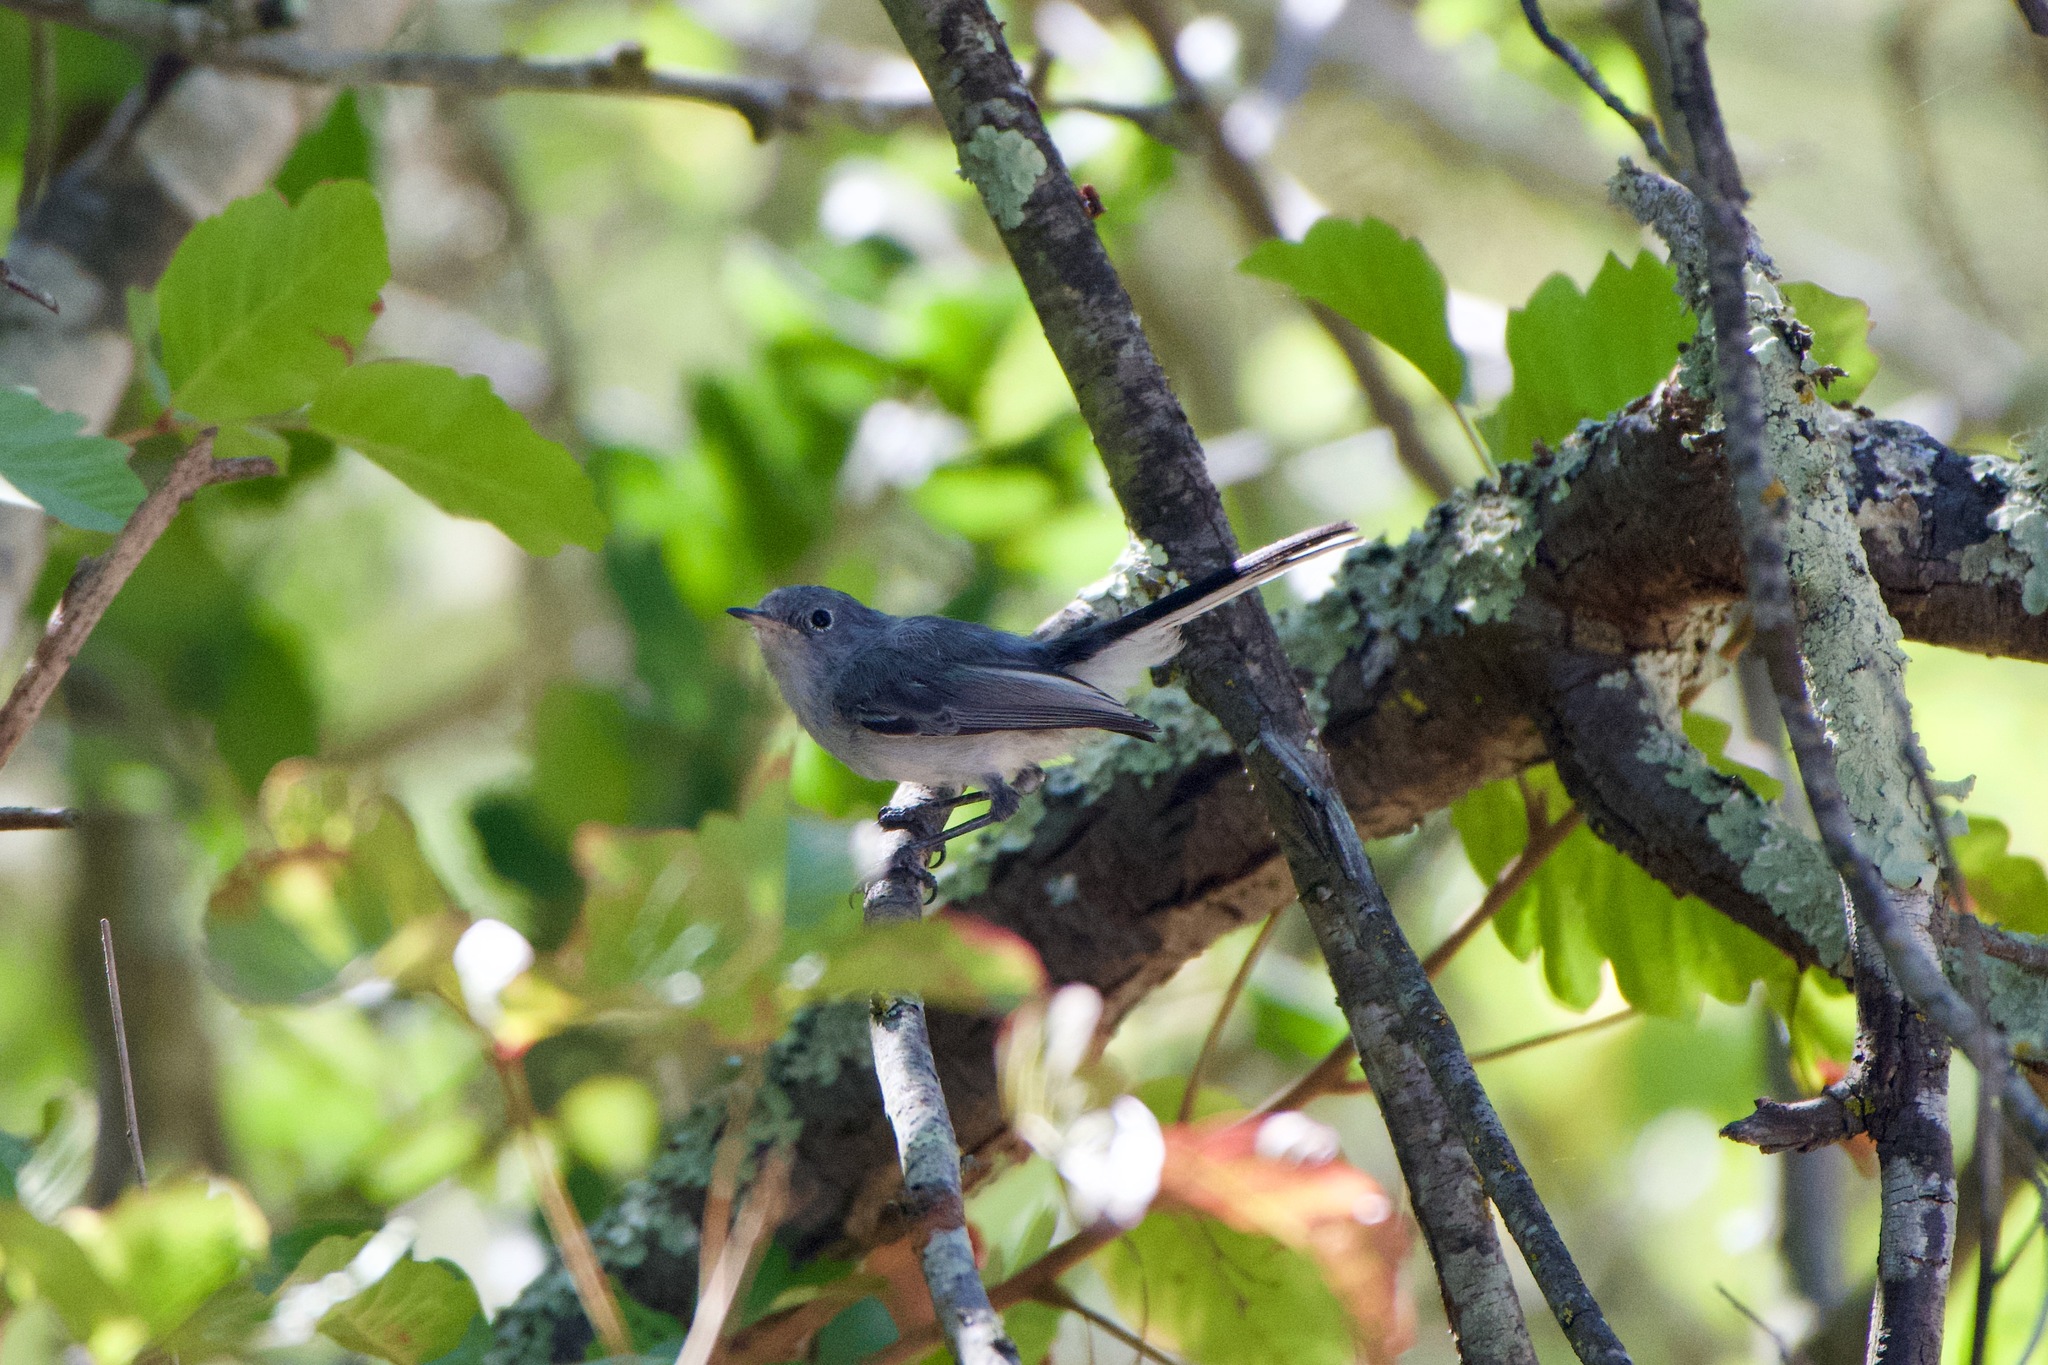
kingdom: Animalia
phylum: Chordata
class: Aves
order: Passeriformes
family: Polioptilidae
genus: Polioptila
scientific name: Polioptila caerulea
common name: Blue-gray gnatcatcher
